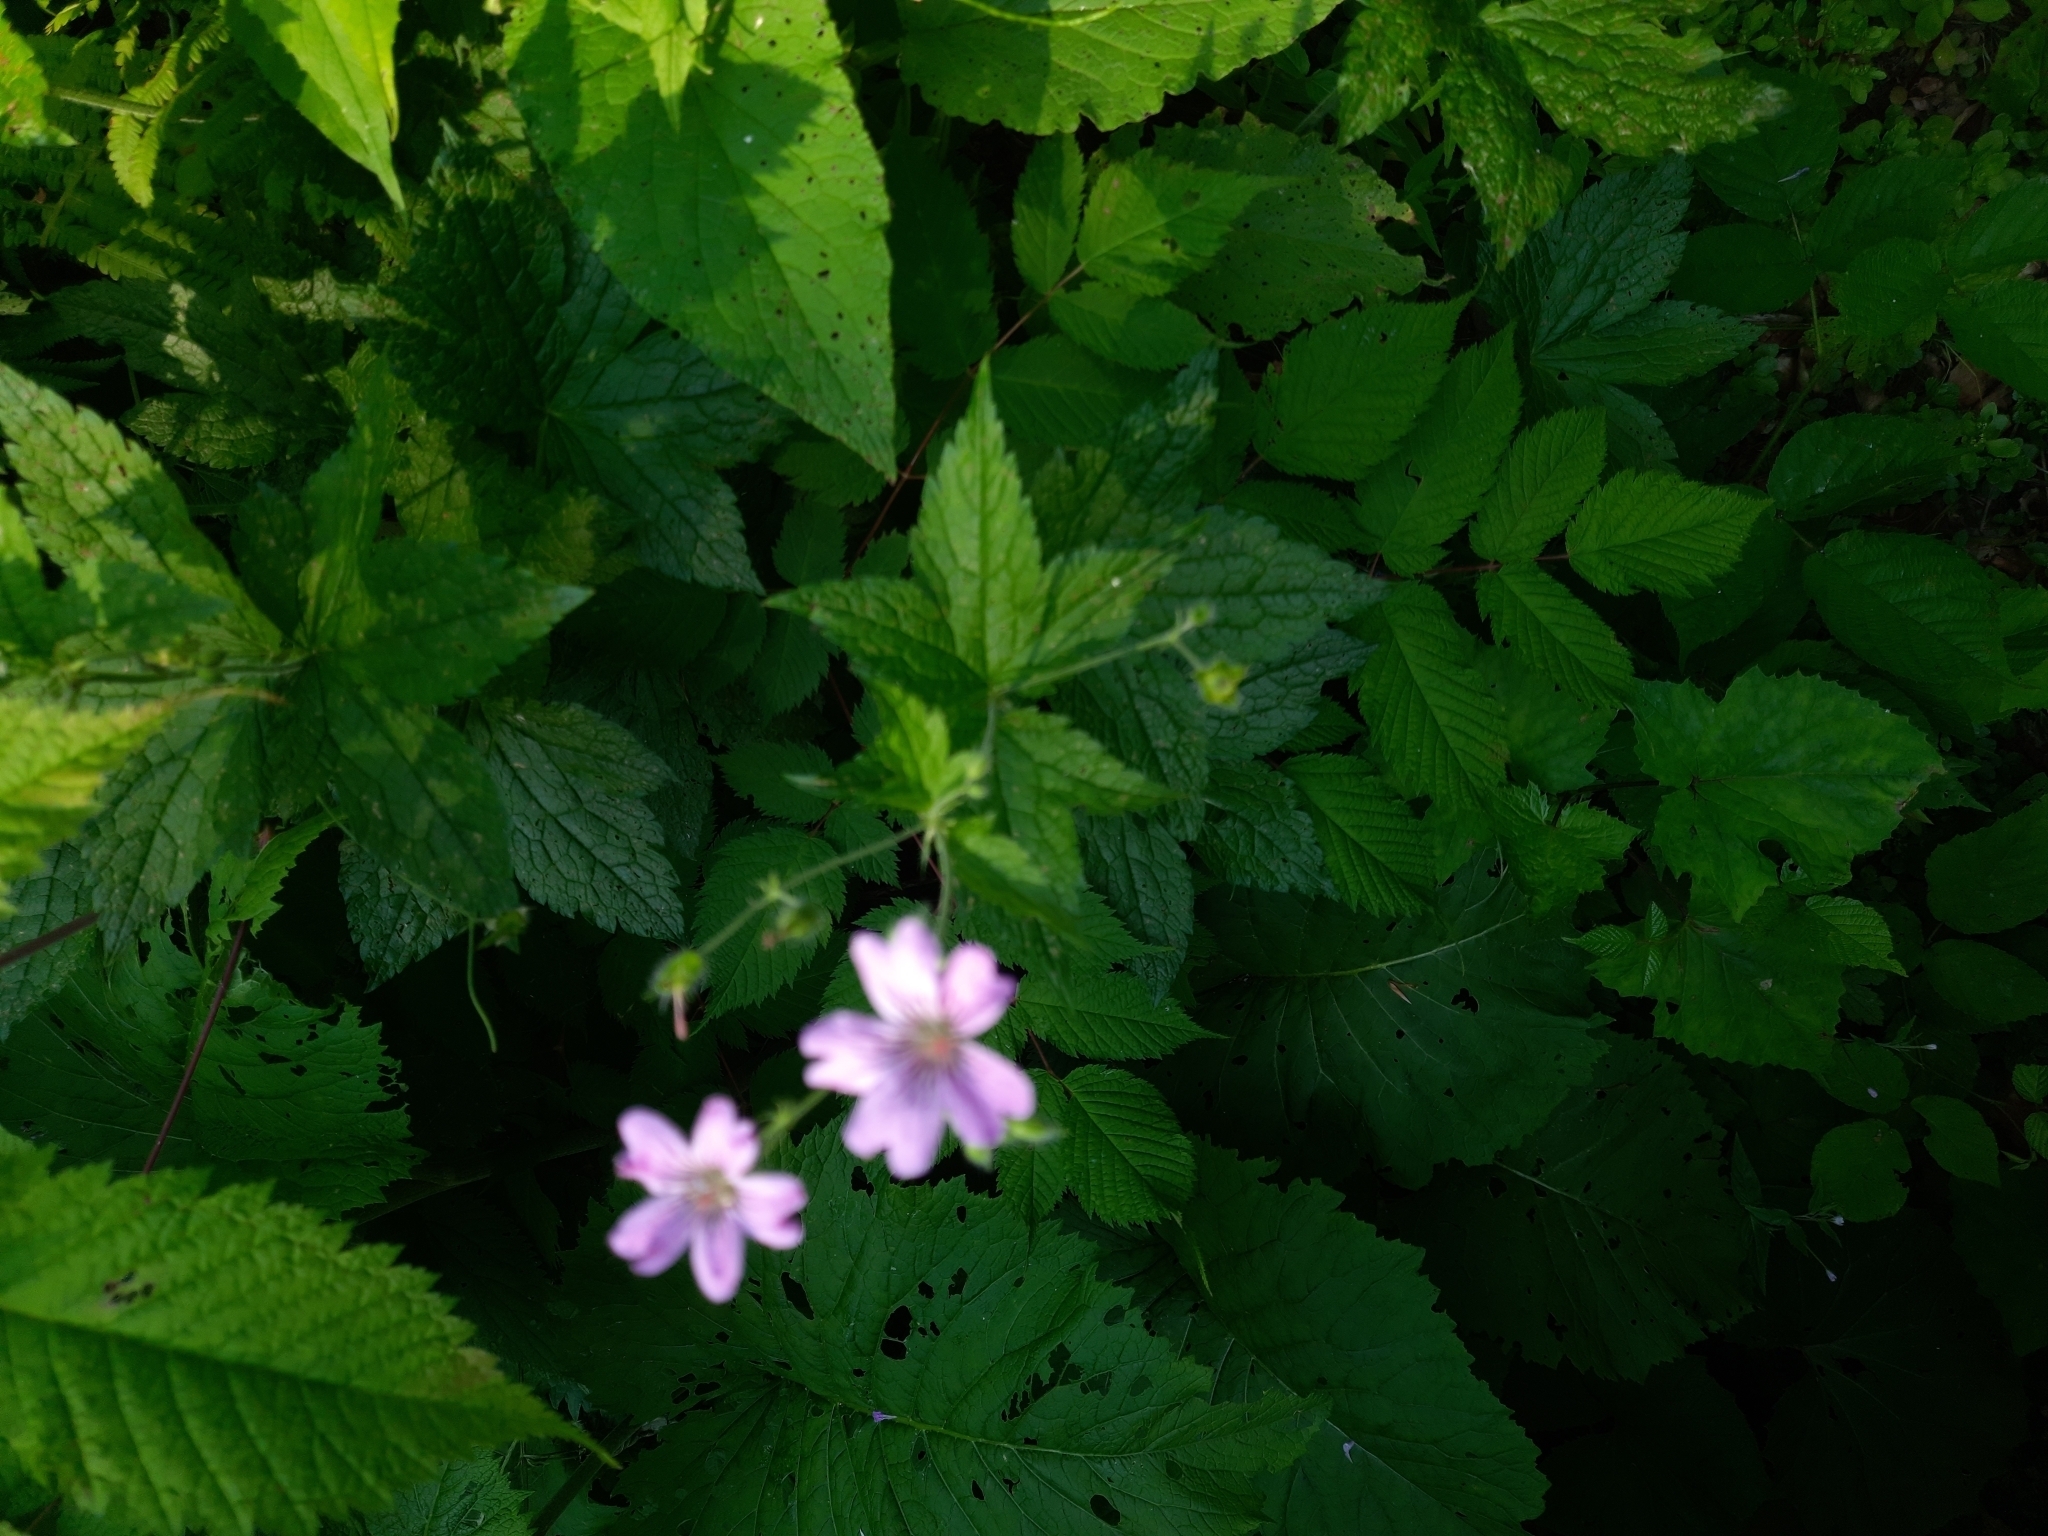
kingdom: Plantae
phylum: Tracheophyta
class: Magnoliopsida
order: Geraniales
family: Geraniaceae
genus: Geranium
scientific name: Geranium gracile
